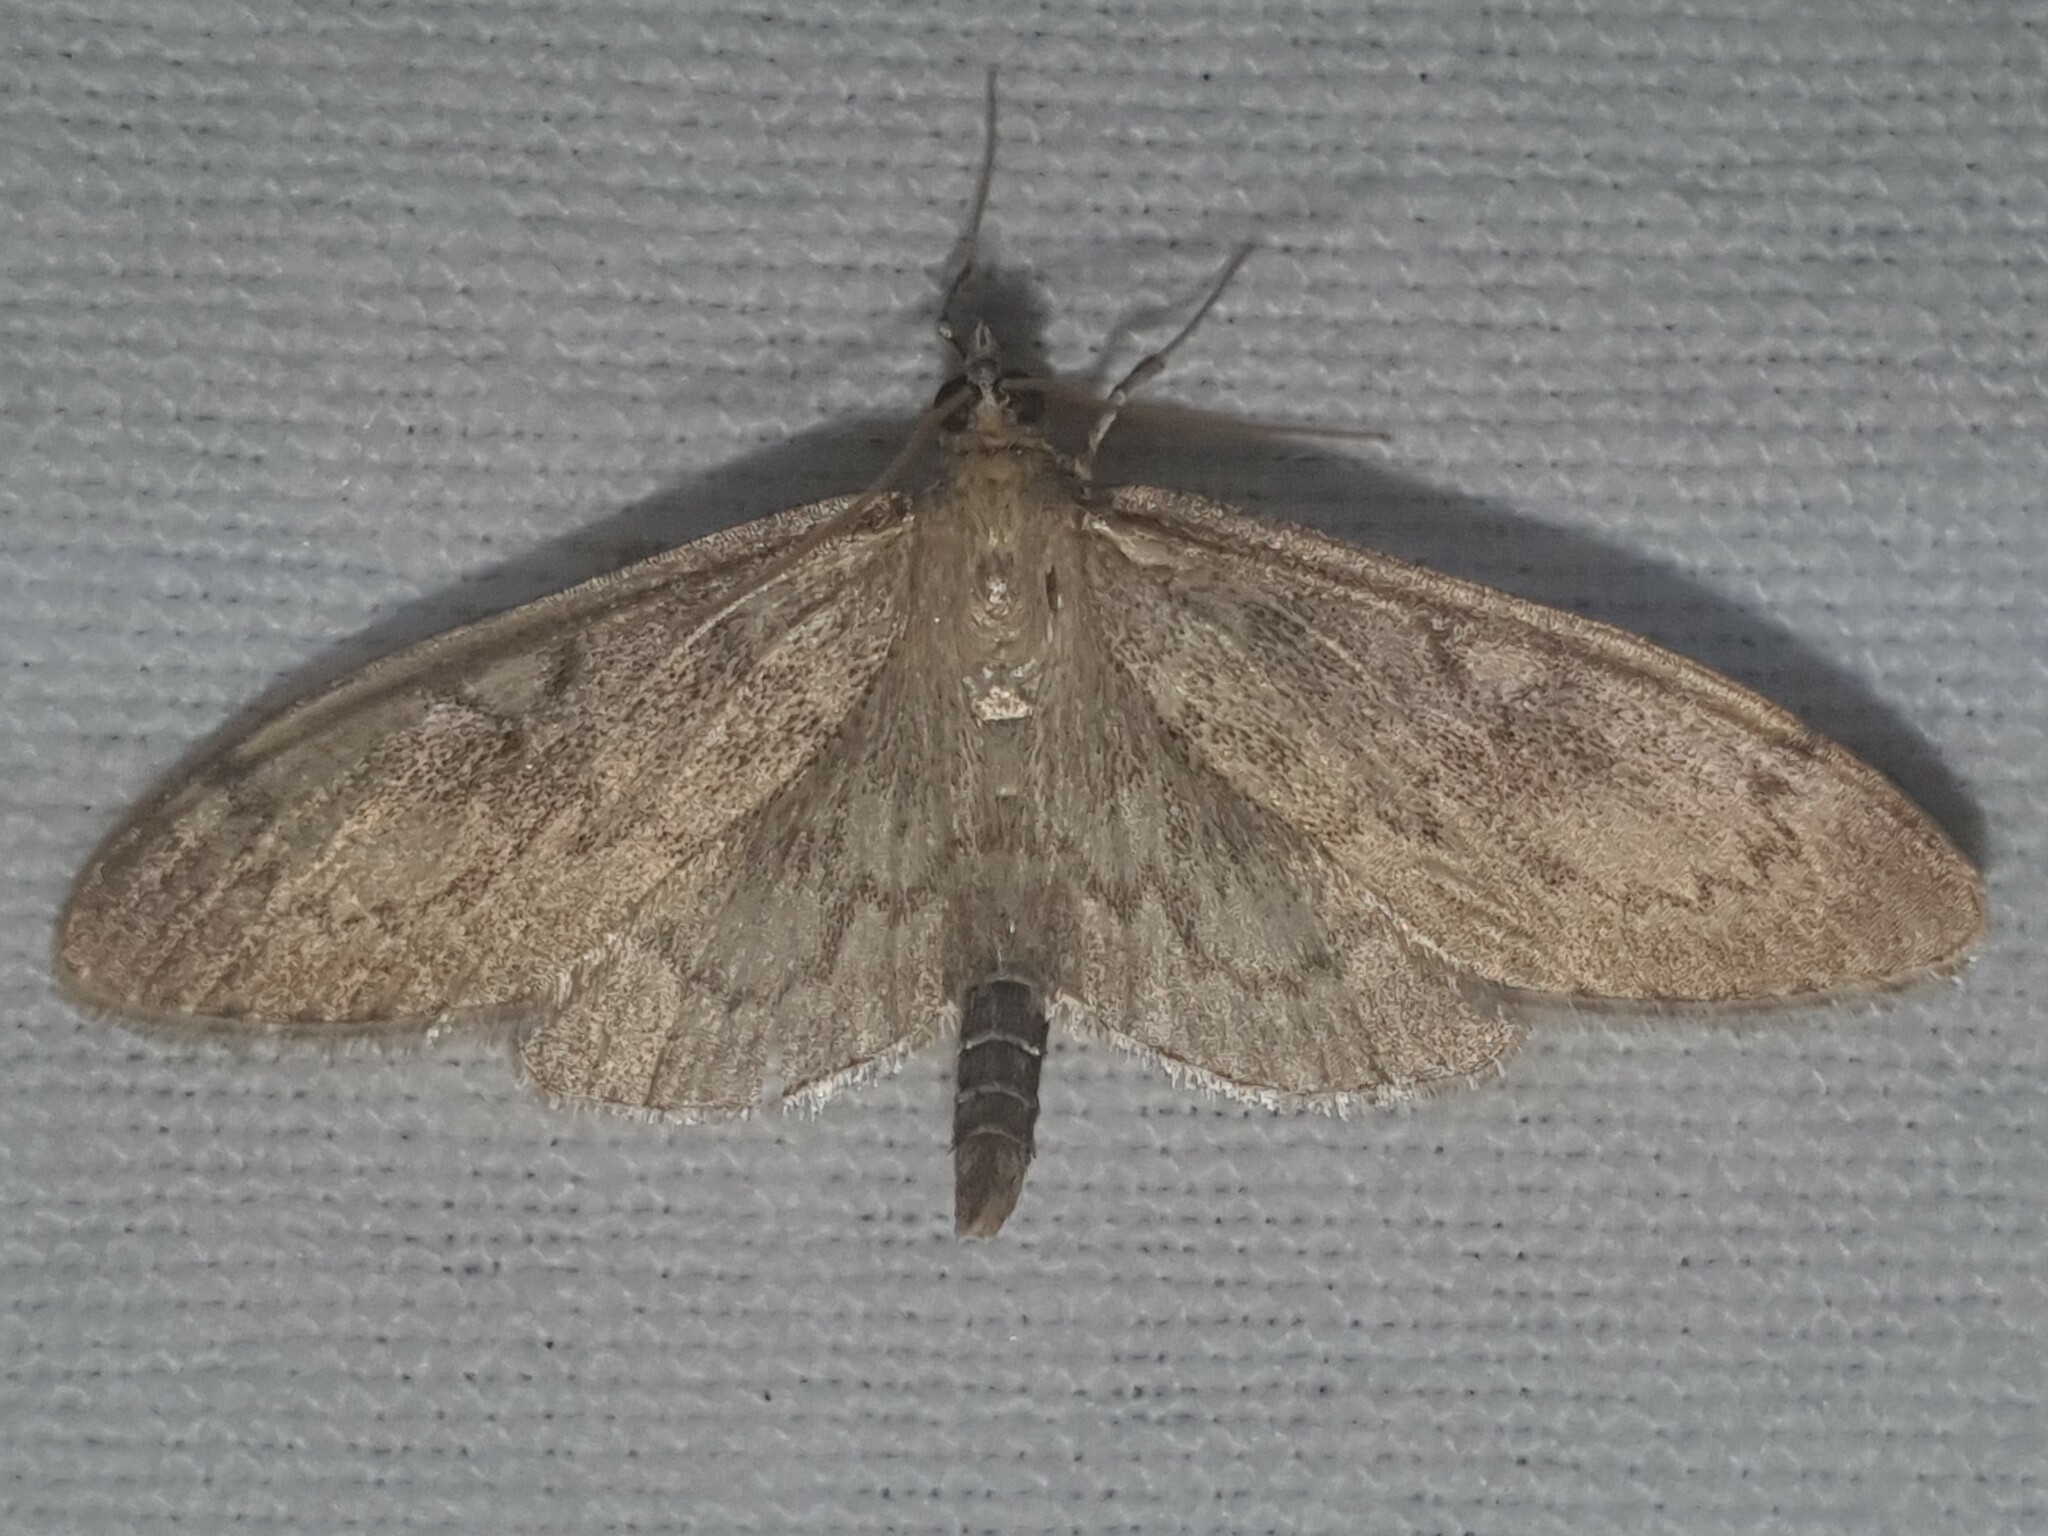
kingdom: Animalia
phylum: Arthropoda
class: Insecta
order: Lepidoptera
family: Crambidae
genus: Anania
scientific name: Anania lancealis
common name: Long-winged pearl
